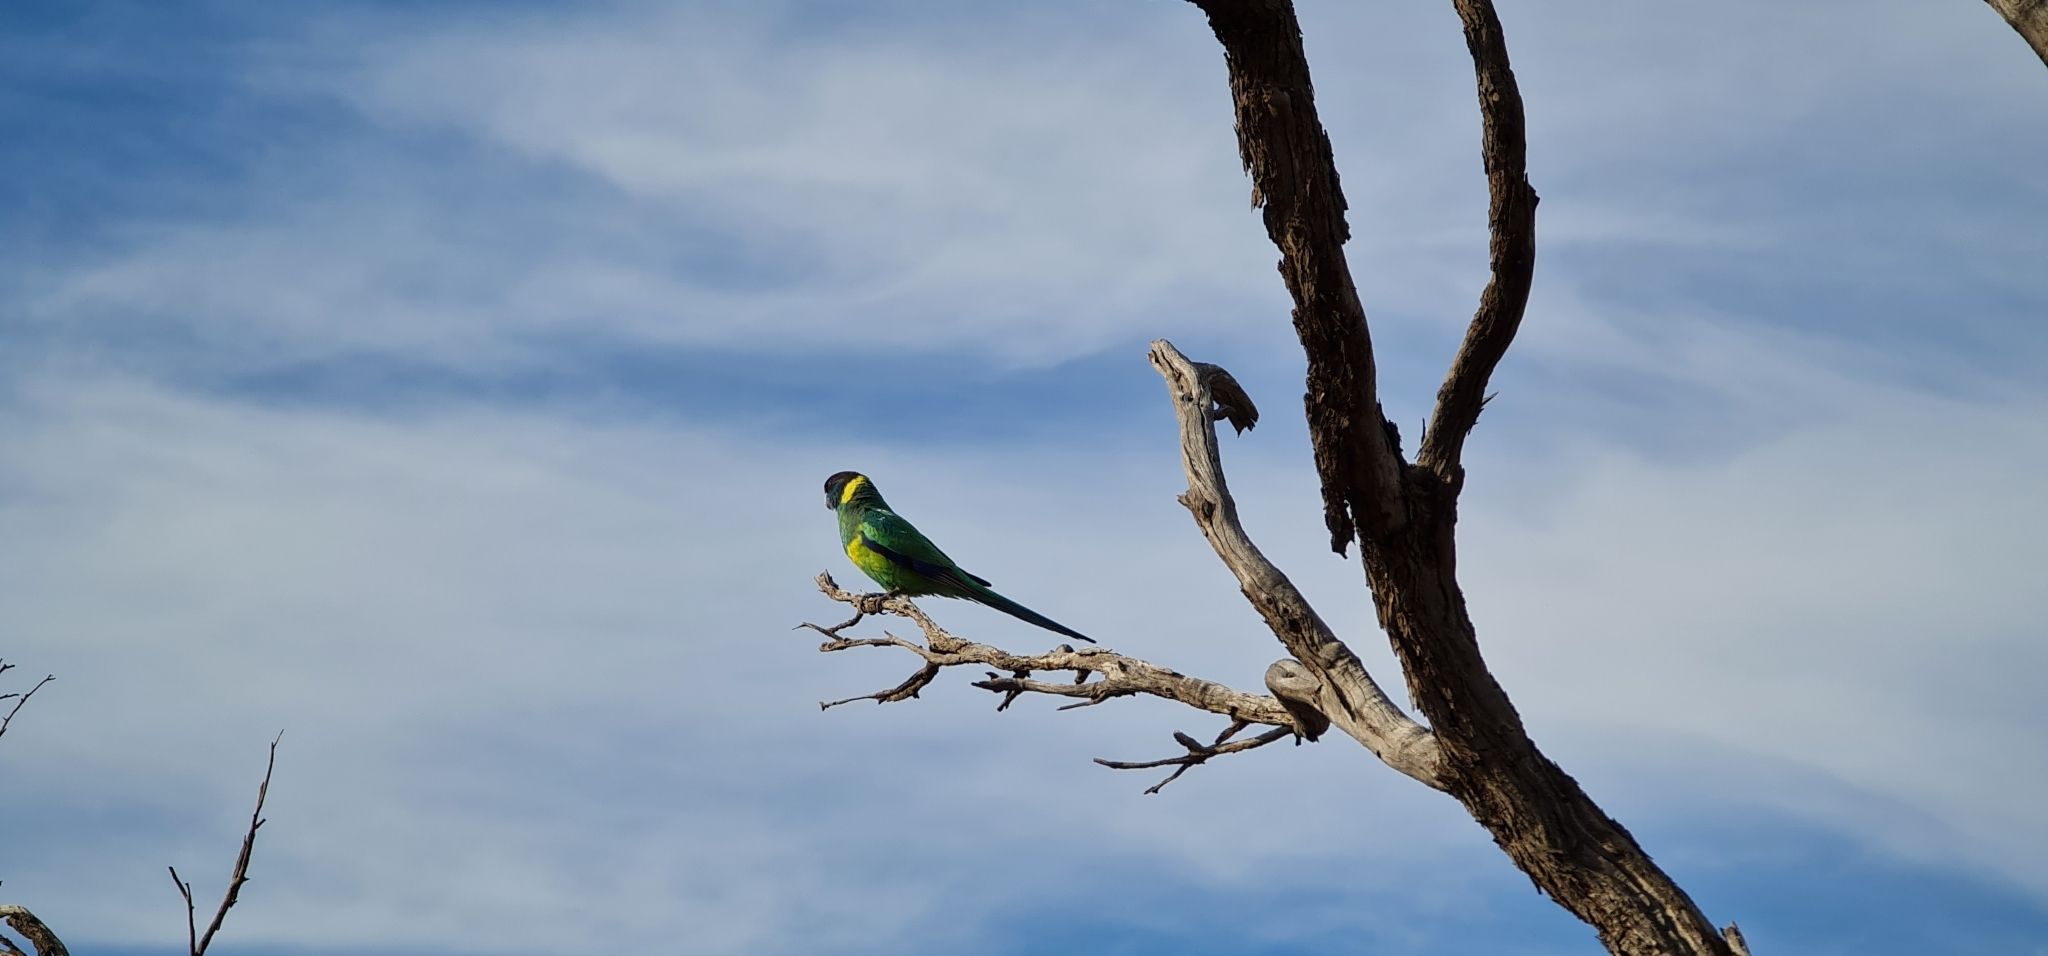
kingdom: Animalia
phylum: Chordata
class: Aves
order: Psittaciformes
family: Psittacidae
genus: Barnardius
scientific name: Barnardius zonarius
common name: Australian ringneck
